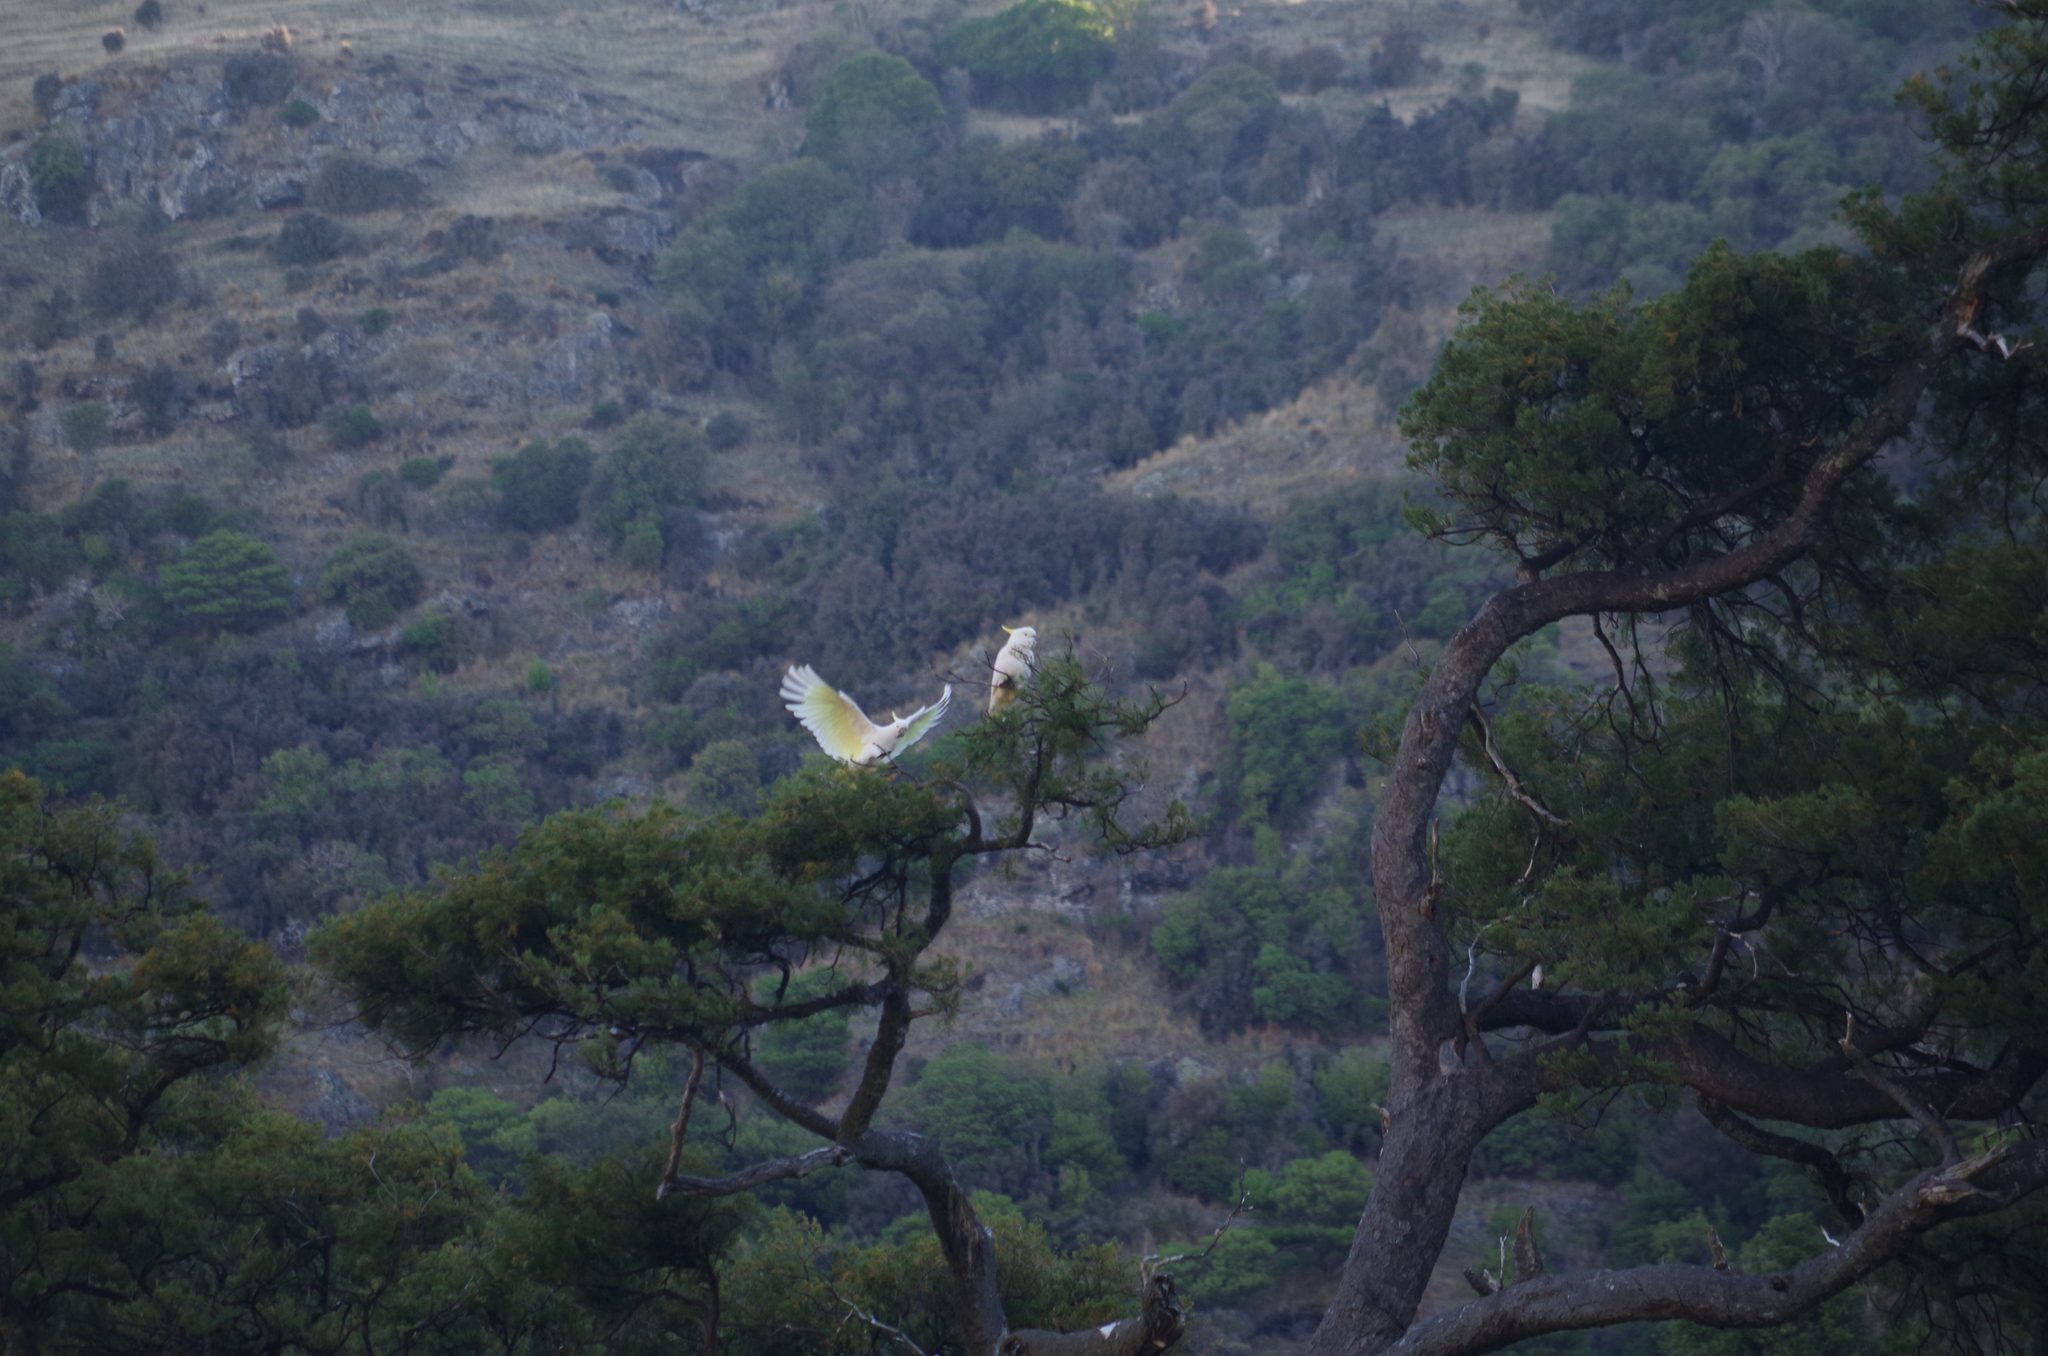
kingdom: Animalia
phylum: Chordata
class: Aves
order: Psittaciformes
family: Psittacidae
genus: Cacatua
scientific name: Cacatua galerita
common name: Sulphur-crested cockatoo
